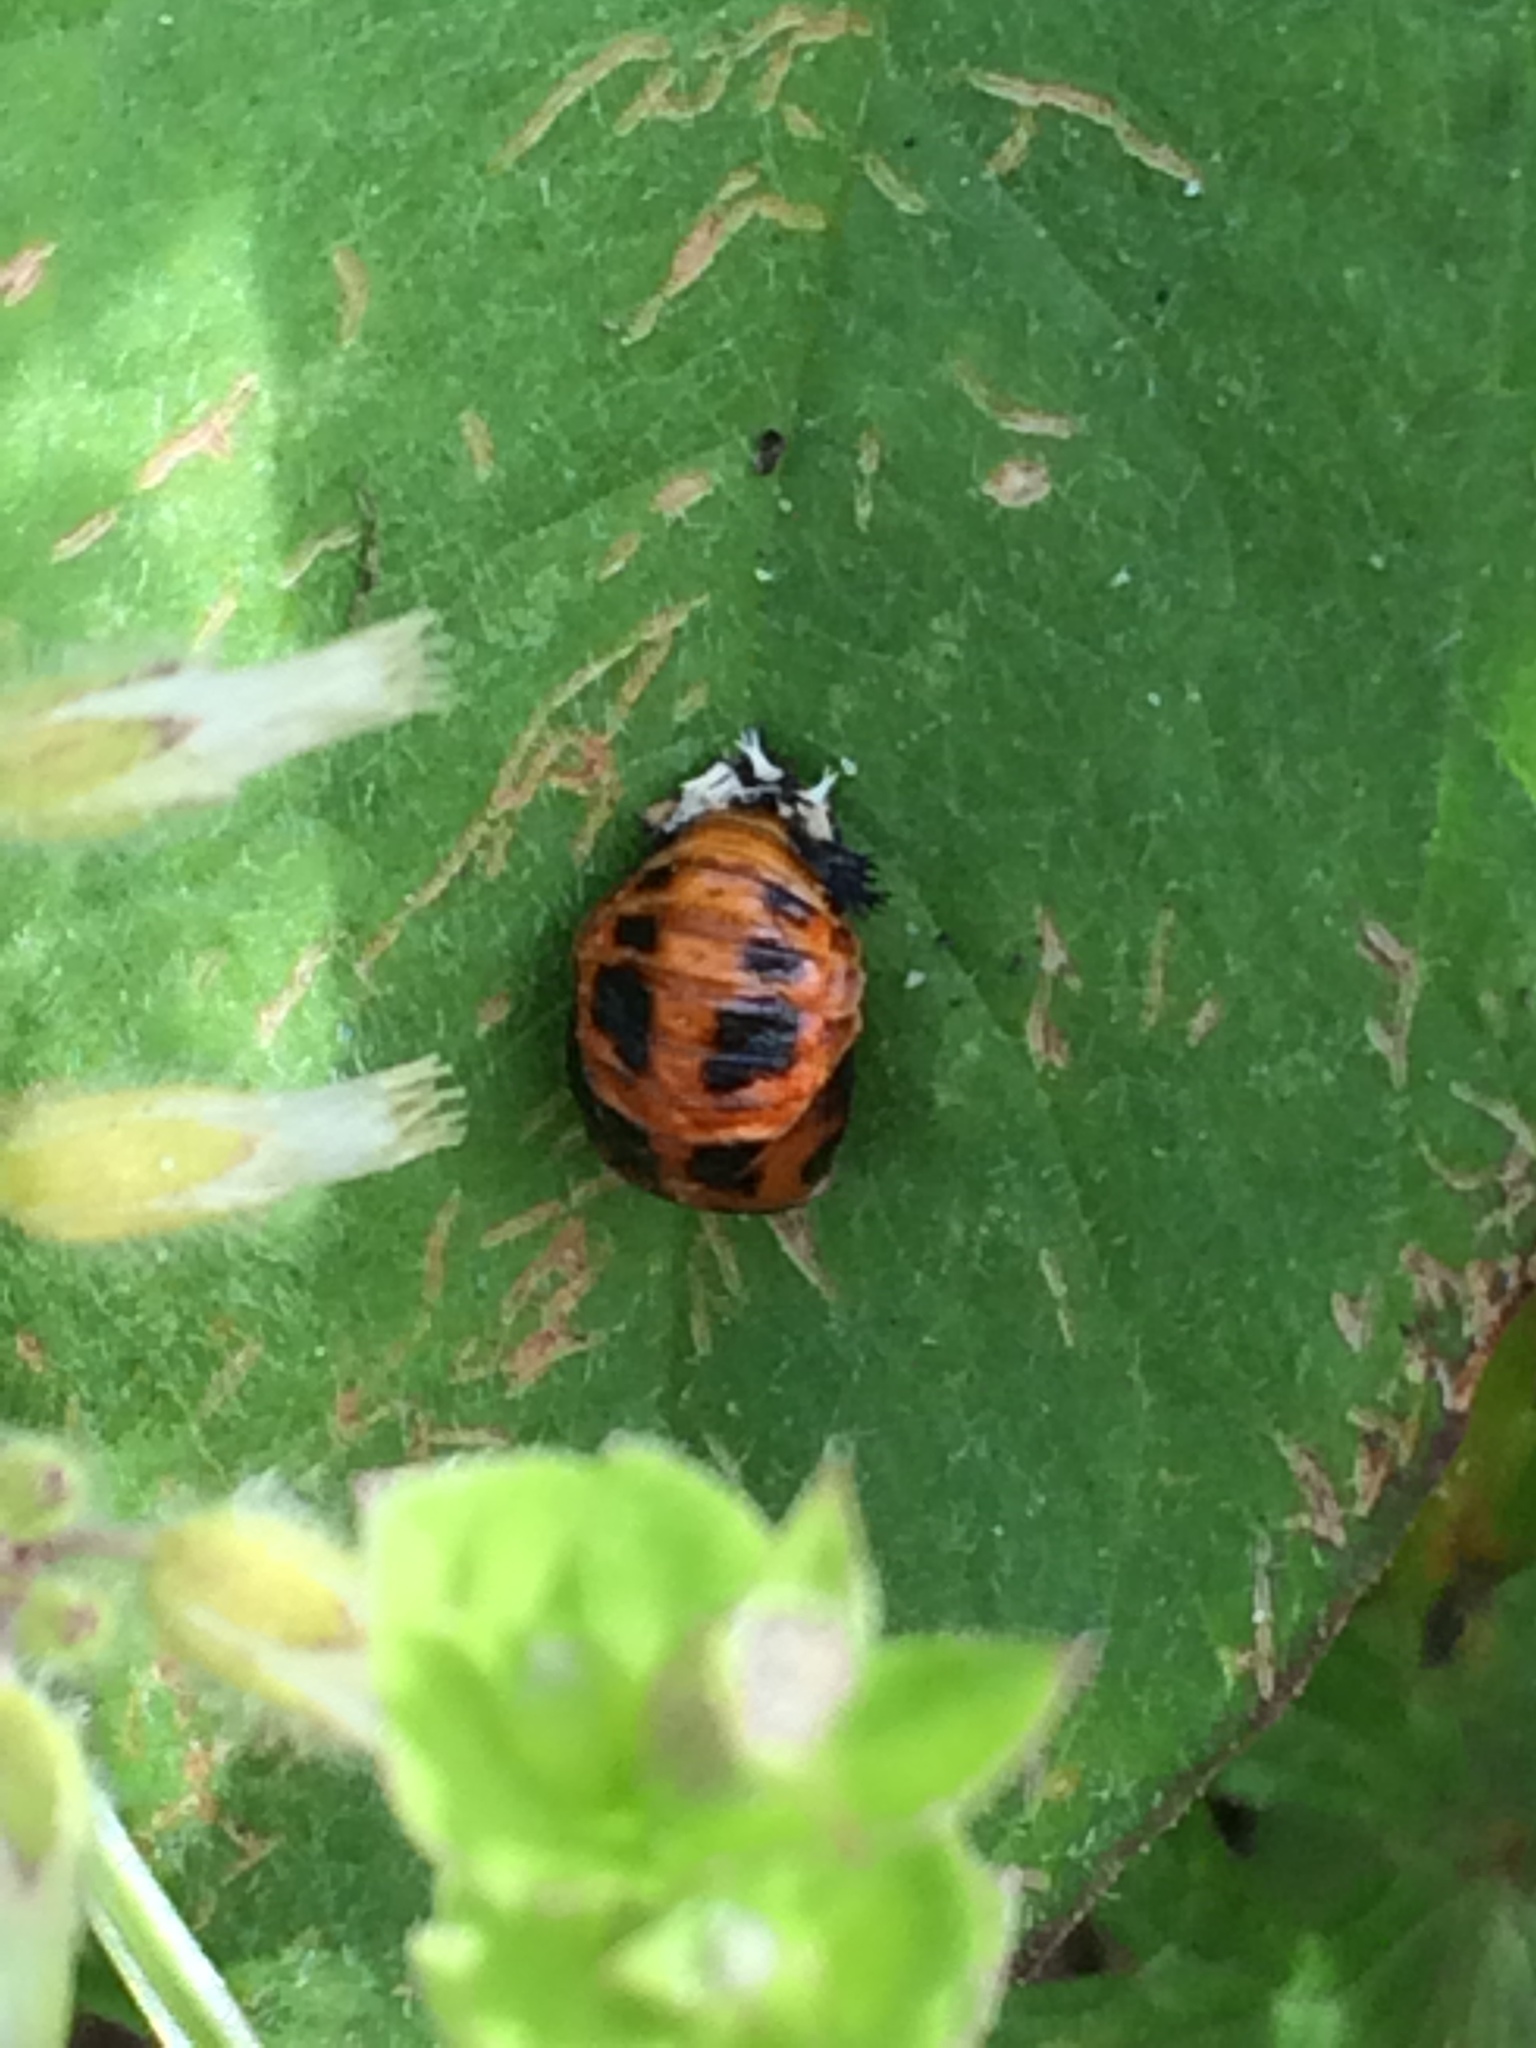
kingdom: Animalia
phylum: Arthropoda
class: Insecta
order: Coleoptera
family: Coccinellidae
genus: Harmonia
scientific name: Harmonia axyridis
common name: Harlequin ladybird
